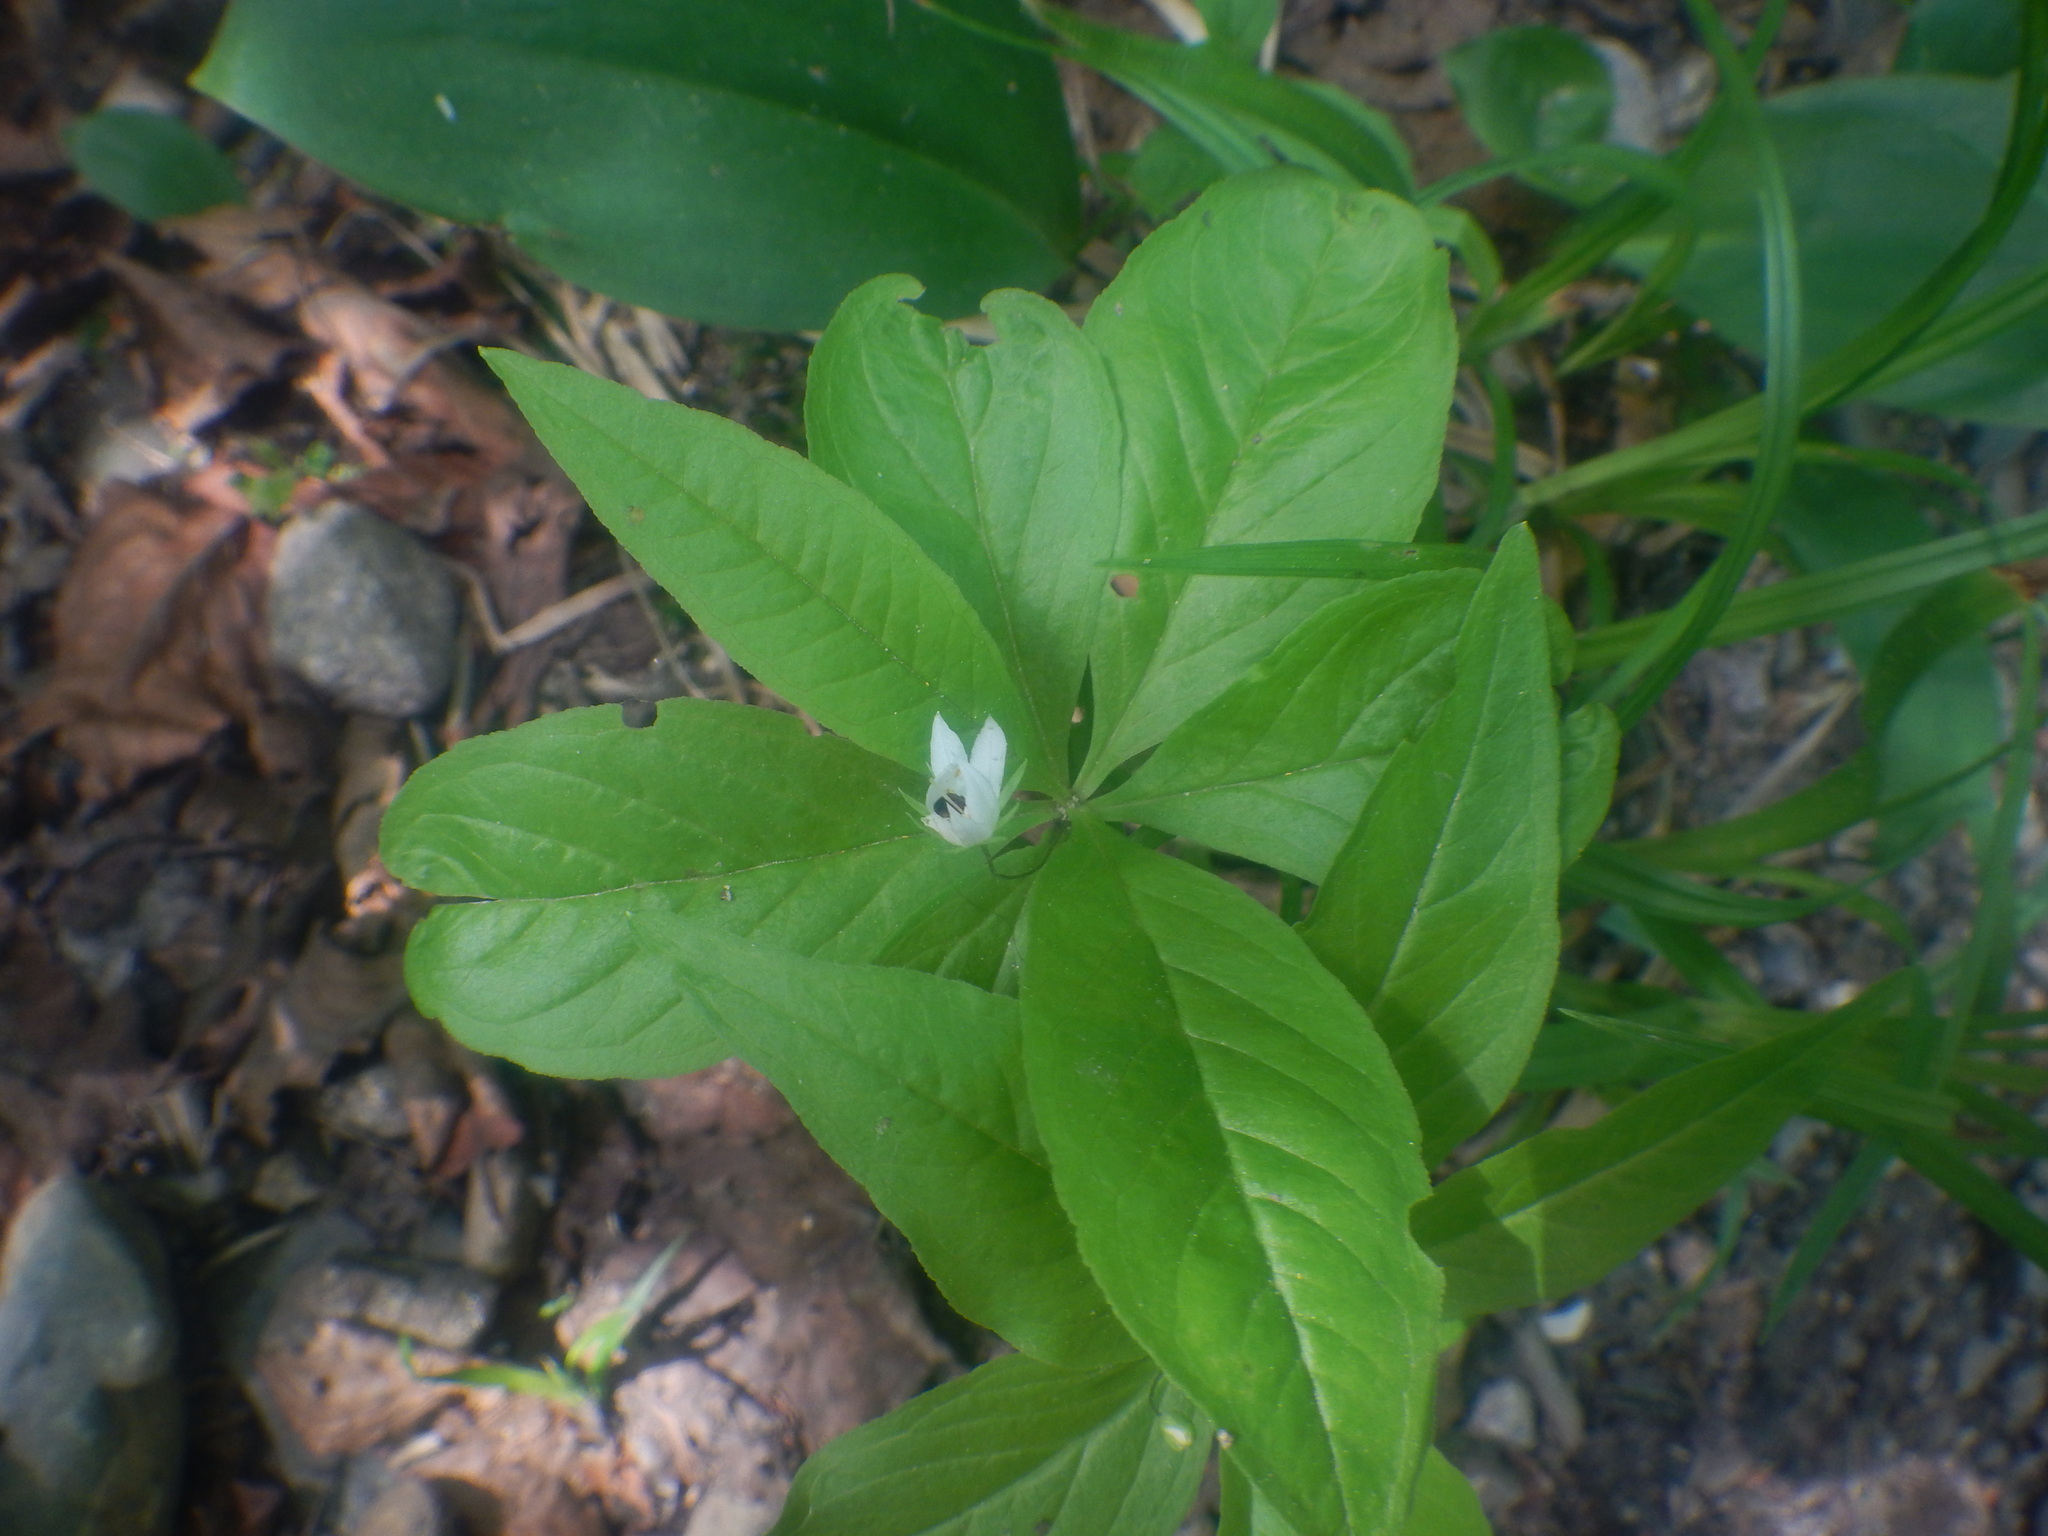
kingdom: Plantae
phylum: Tracheophyta
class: Magnoliopsida
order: Ericales
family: Primulaceae
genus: Lysimachia
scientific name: Lysimachia borealis
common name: American starflower
